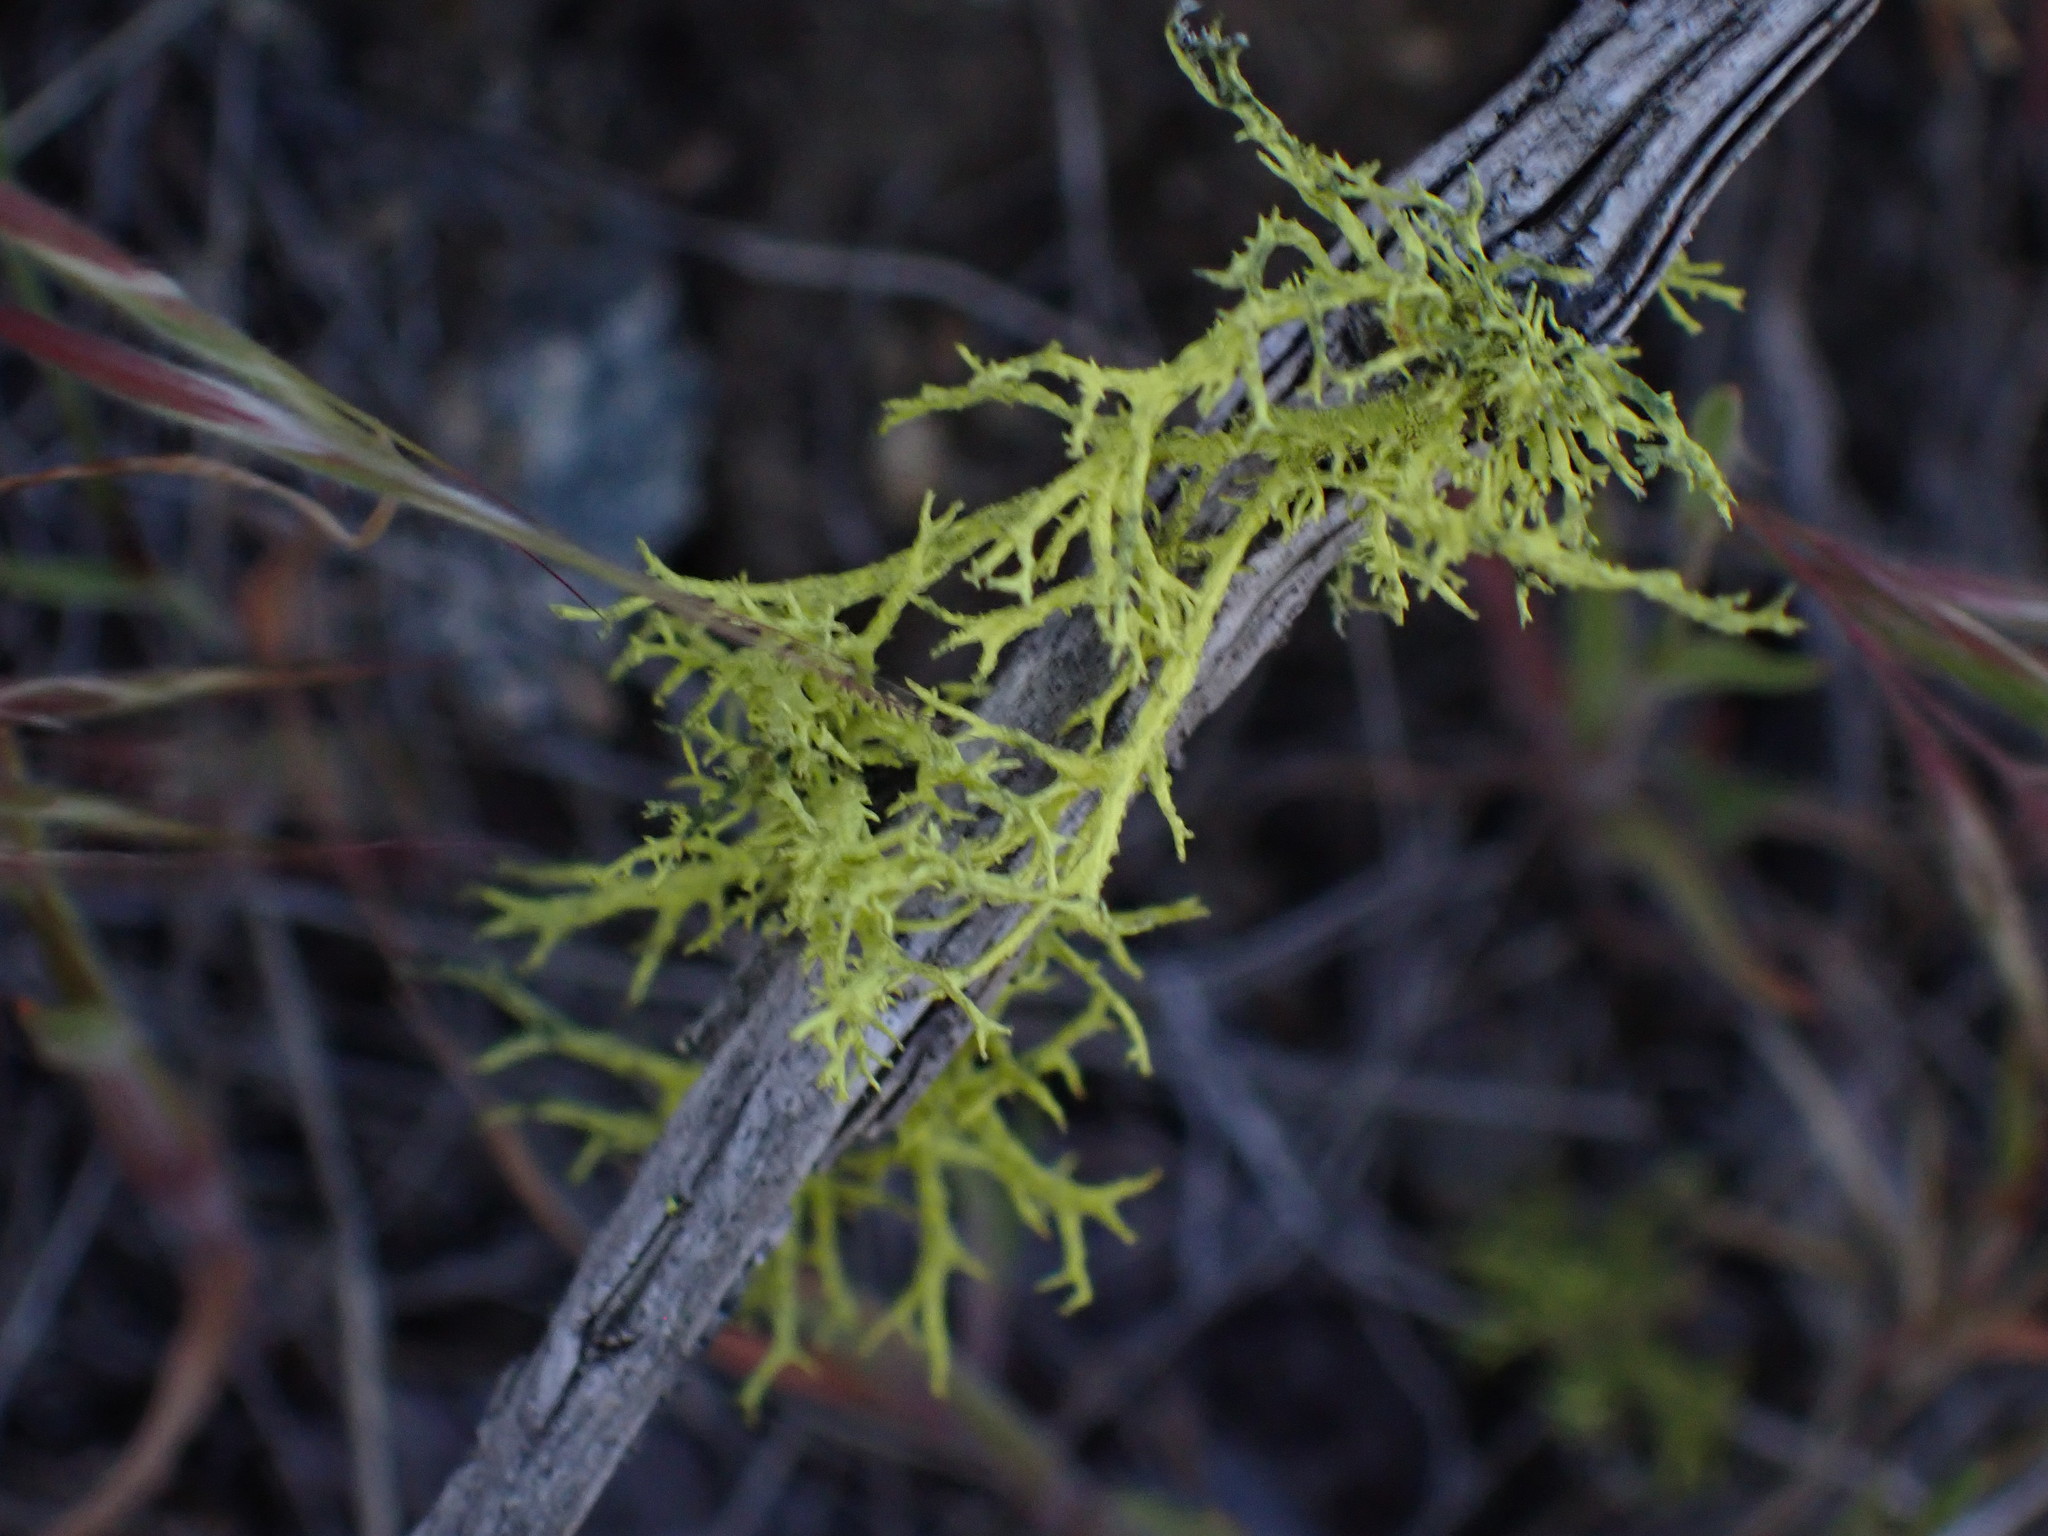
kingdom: Fungi
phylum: Ascomycota
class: Lecanoromycetes
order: Lecanorales
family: Parmeliaceae
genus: Letharia
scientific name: Letharia vulpina
